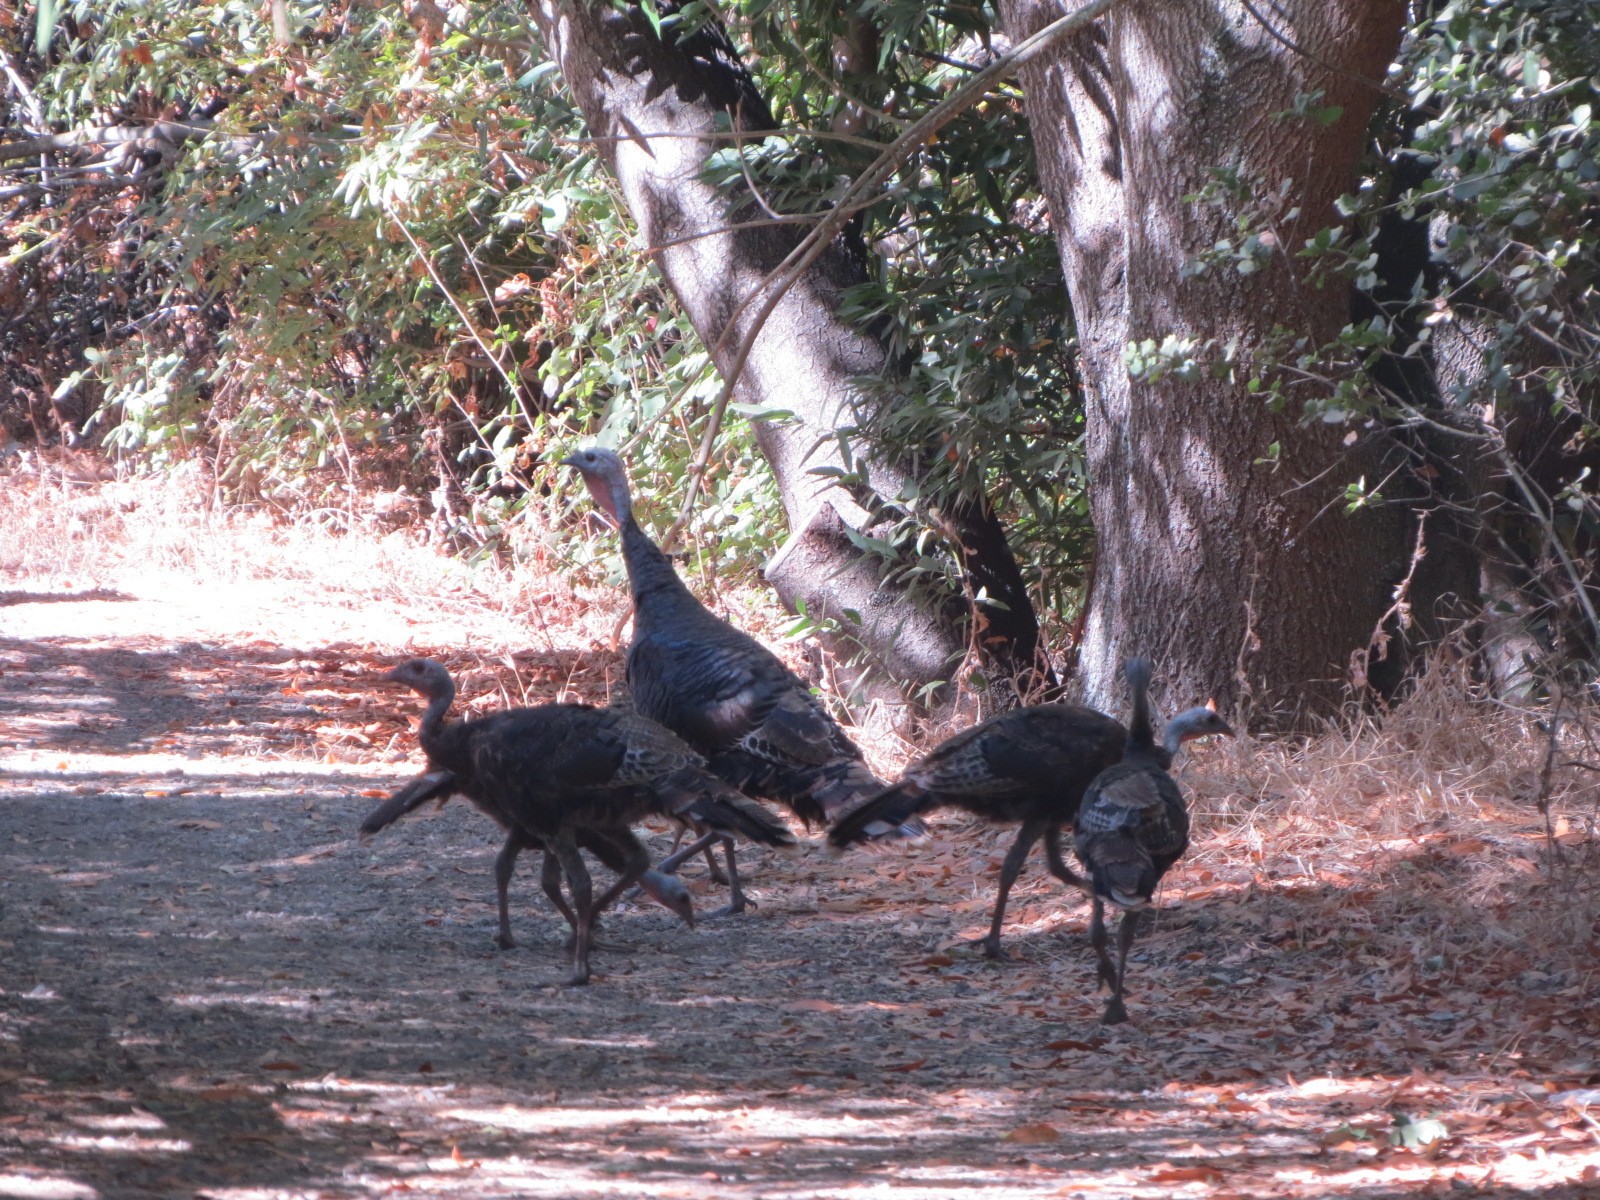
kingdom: Animalia
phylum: Chordata
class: Aves
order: Galliformes
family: Phasianidae
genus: Meleagris
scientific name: Meleagris gallopavo
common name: Wild turkey
